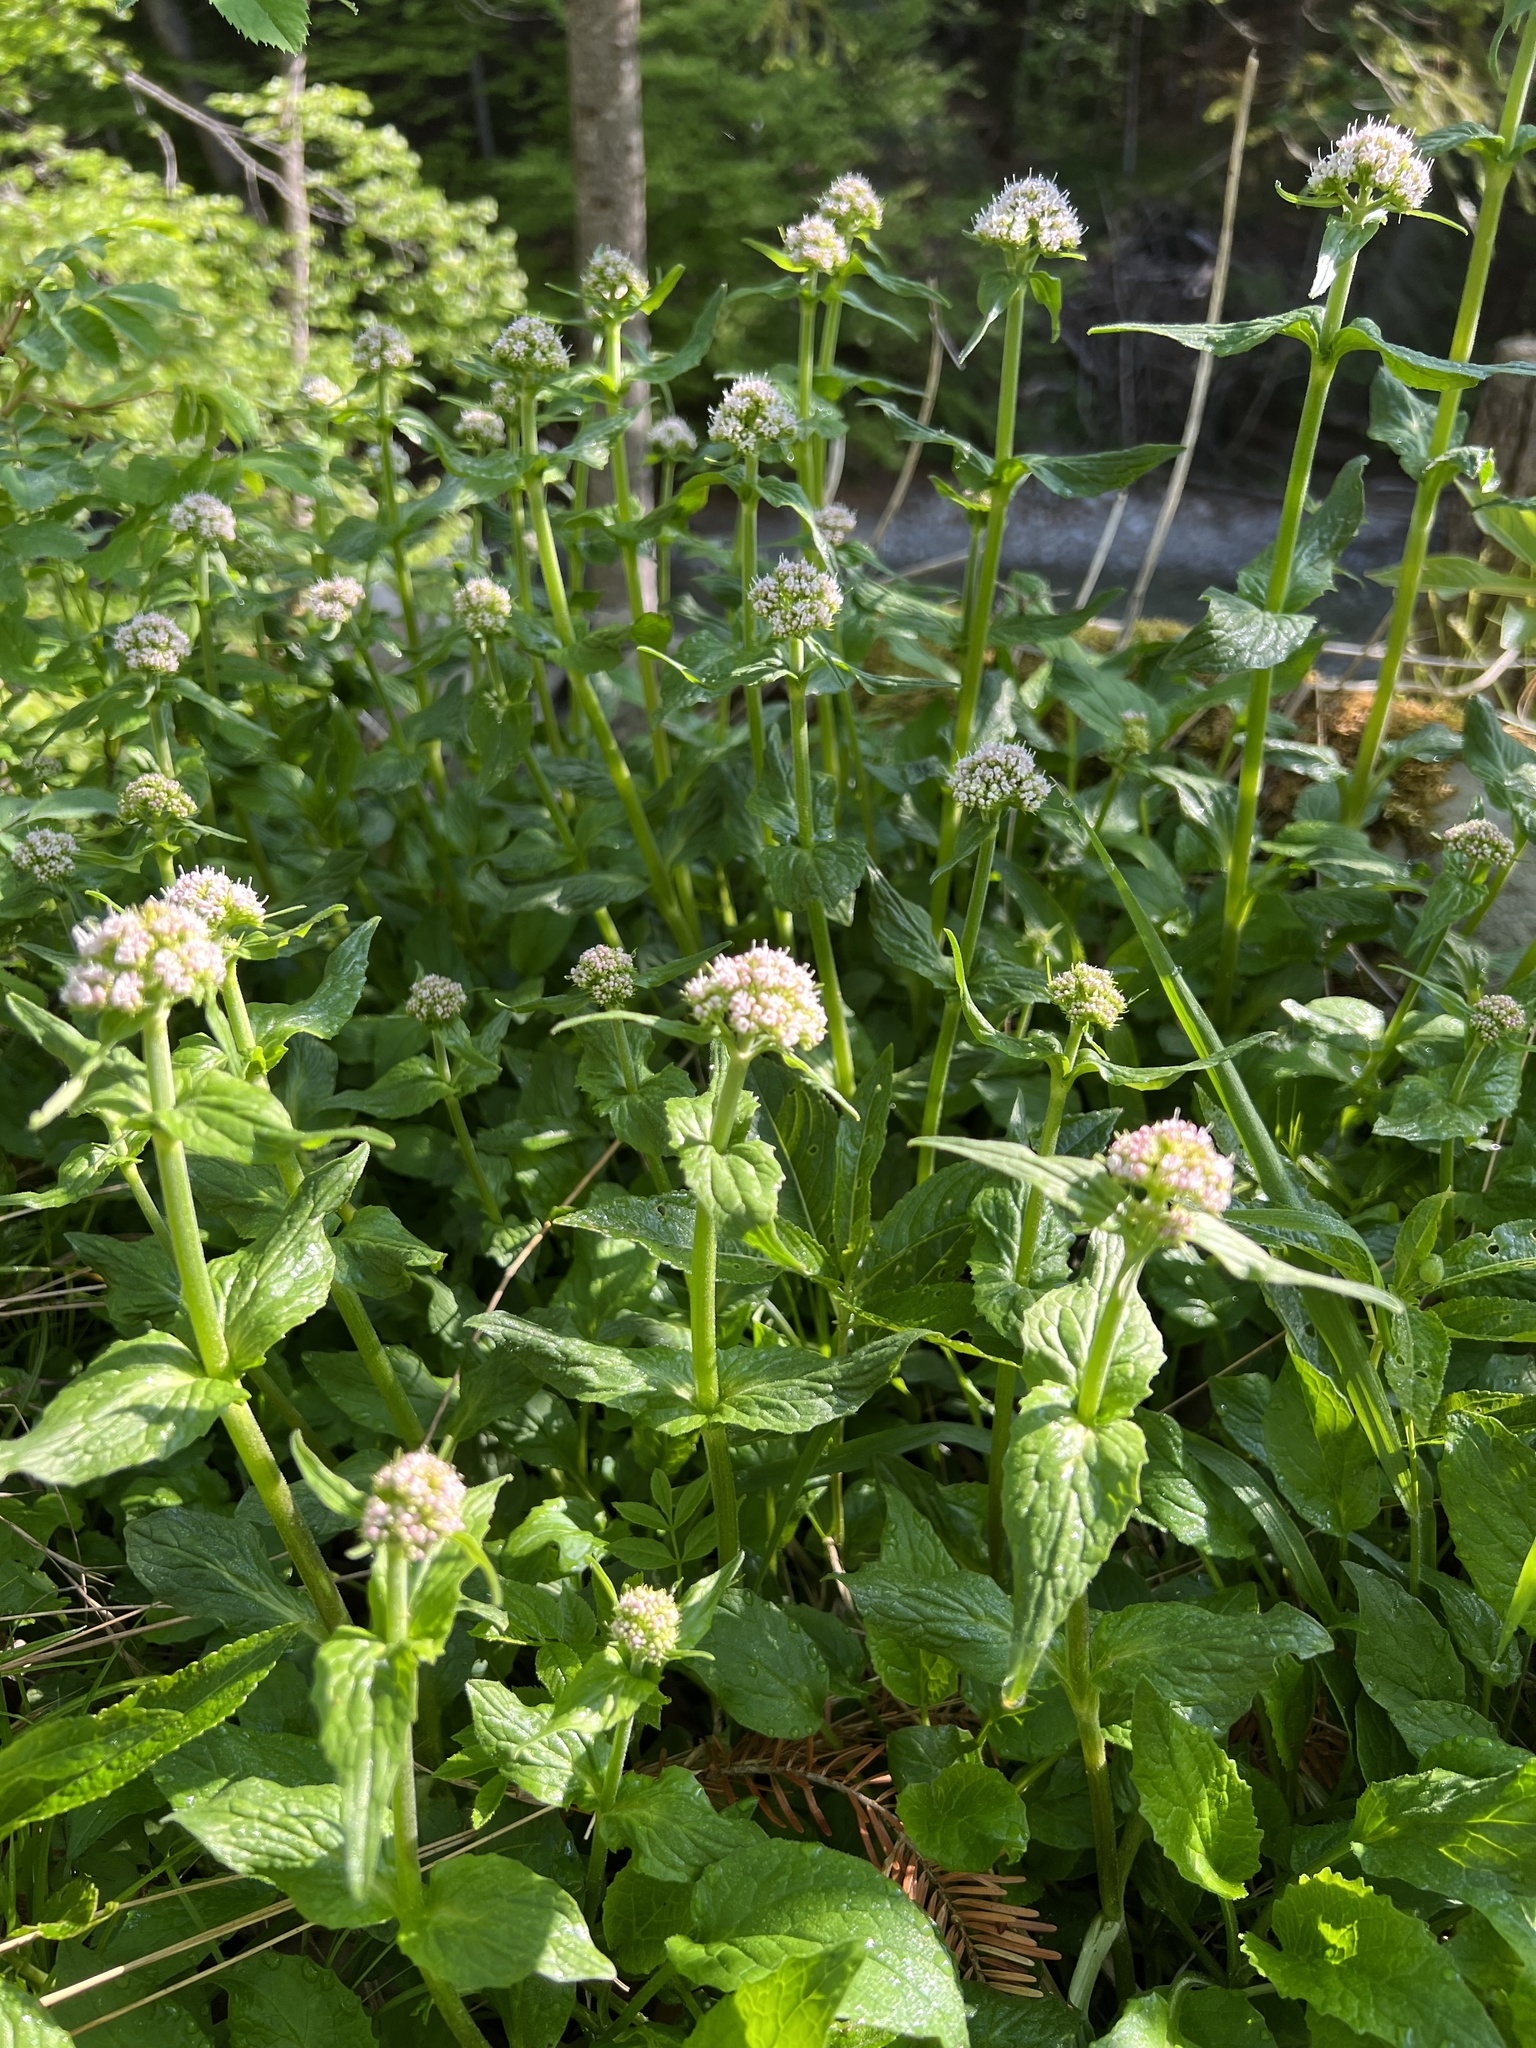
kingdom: Plantae
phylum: Tracheophyta
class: Magnoliopsida
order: Dipsacales
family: Caprifoliaceae
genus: Valeriana
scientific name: Valeriana montana
